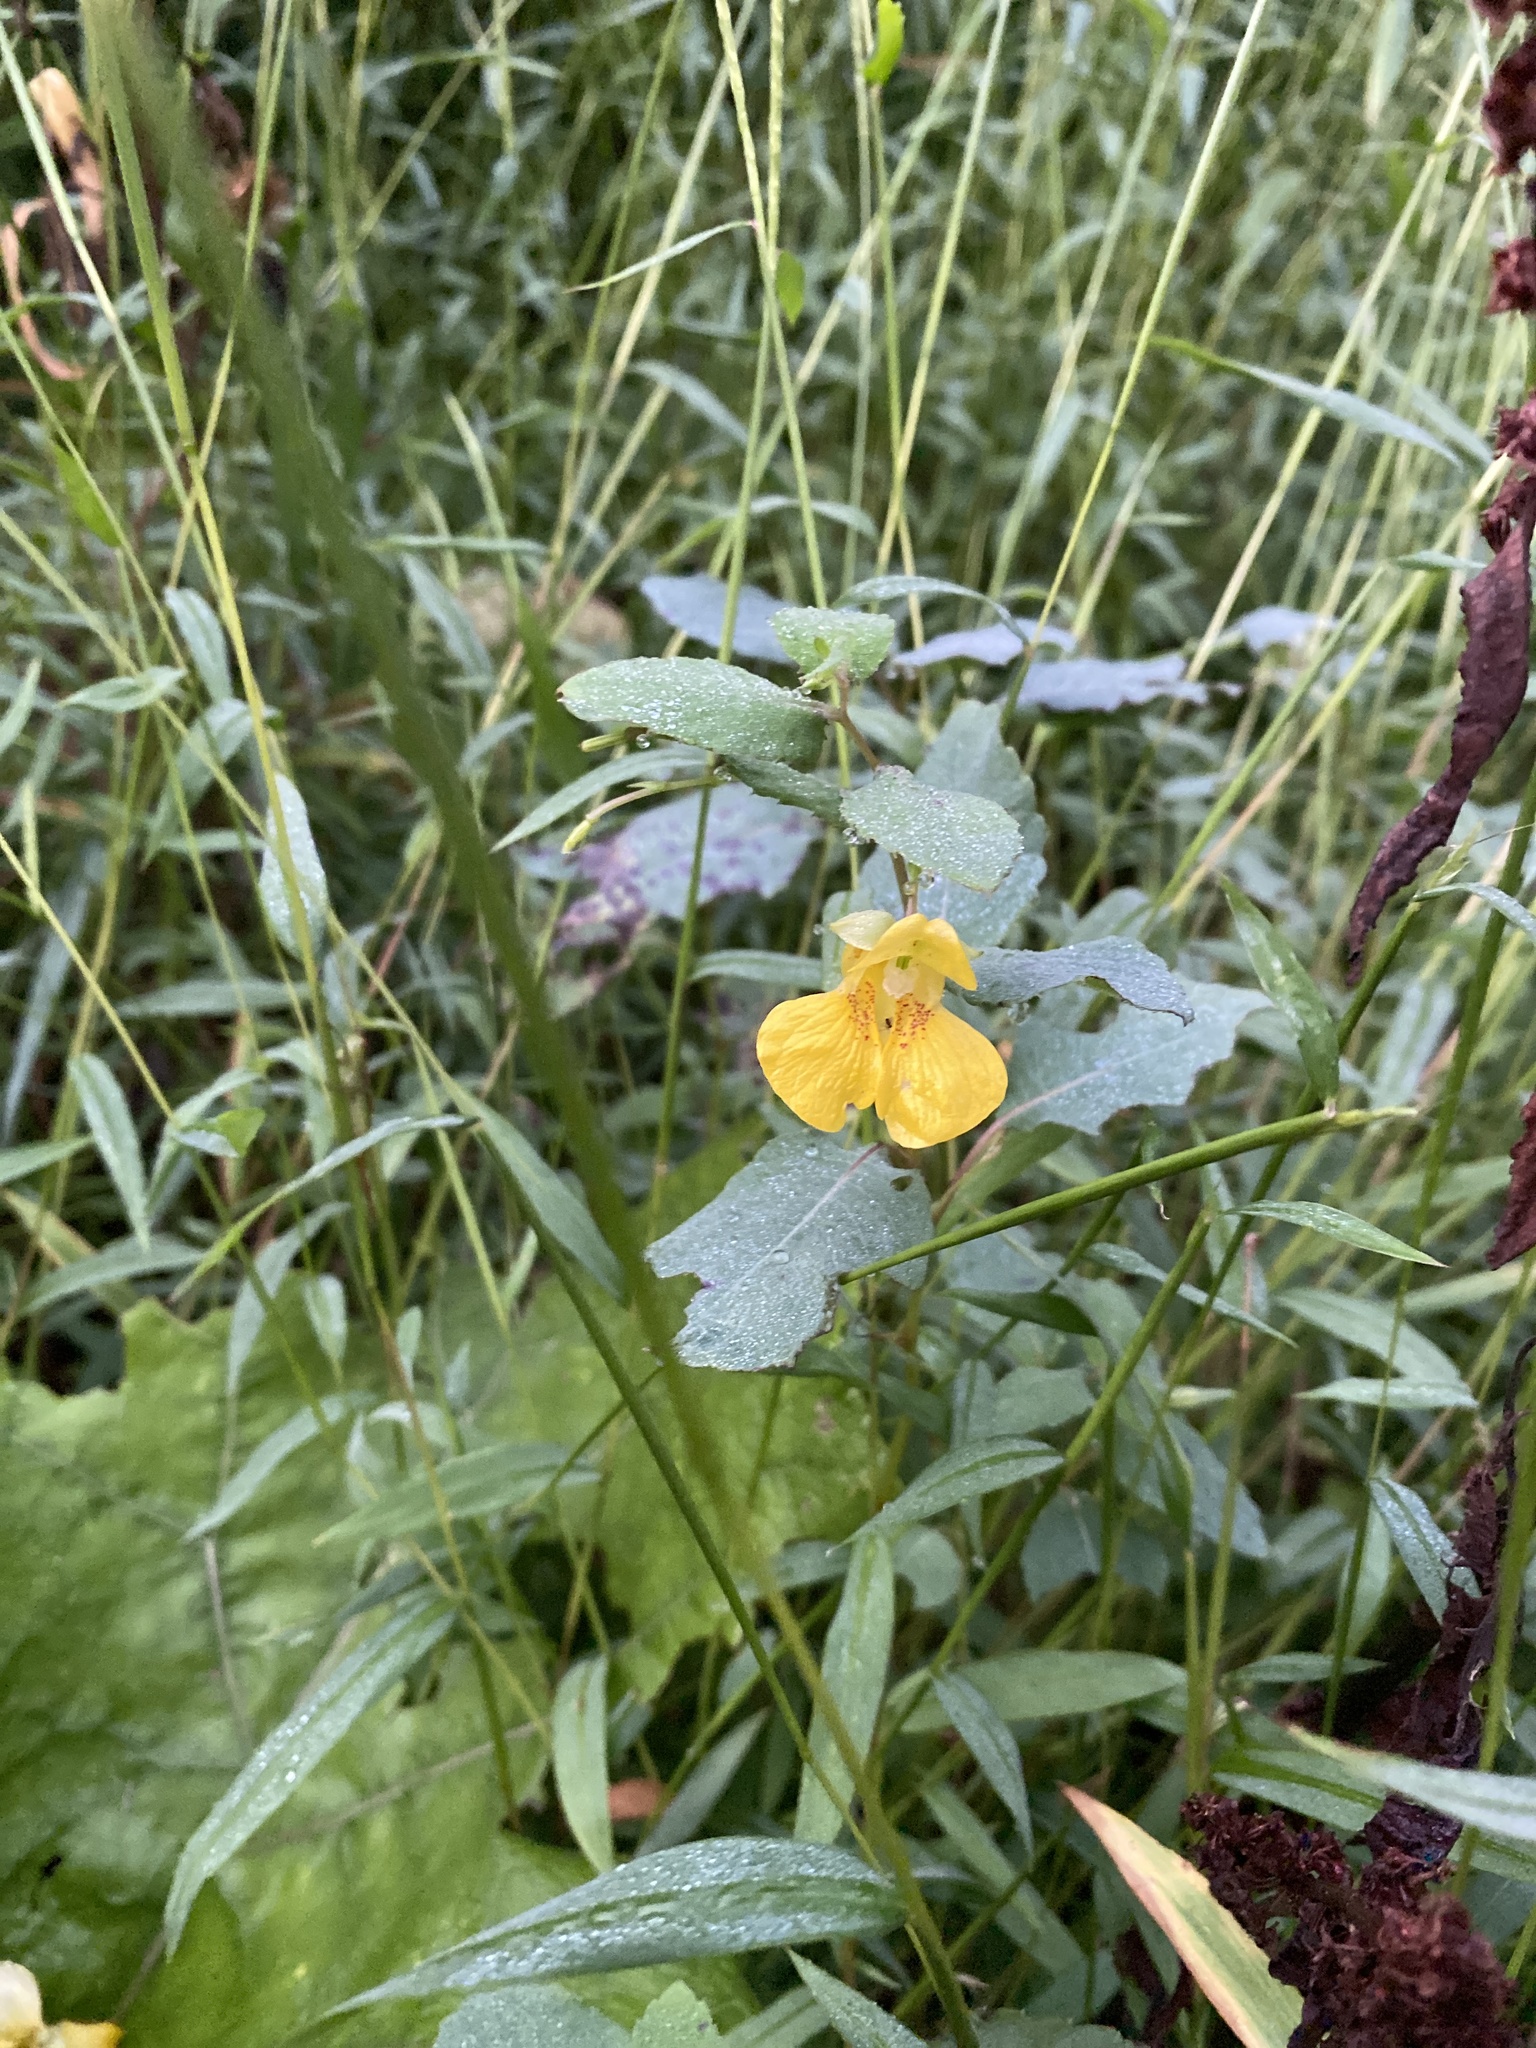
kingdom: Plantae
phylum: Tracheophyta
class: Magnoliopsida
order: Ericales
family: Balsaminaceae
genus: Impatiens
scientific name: Impatiens pallida
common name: Pale snapweed
